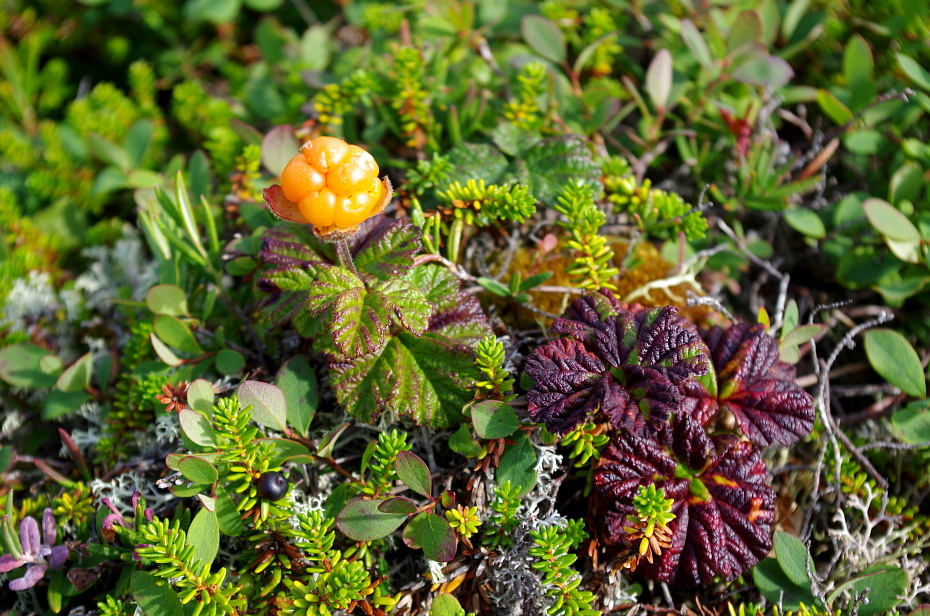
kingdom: Plantae
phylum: Tracheophyta
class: Magnoliopsida
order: Rosales
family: Rosaceae
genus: Rubus
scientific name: Rubus chamaemorus
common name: Cloudberry
